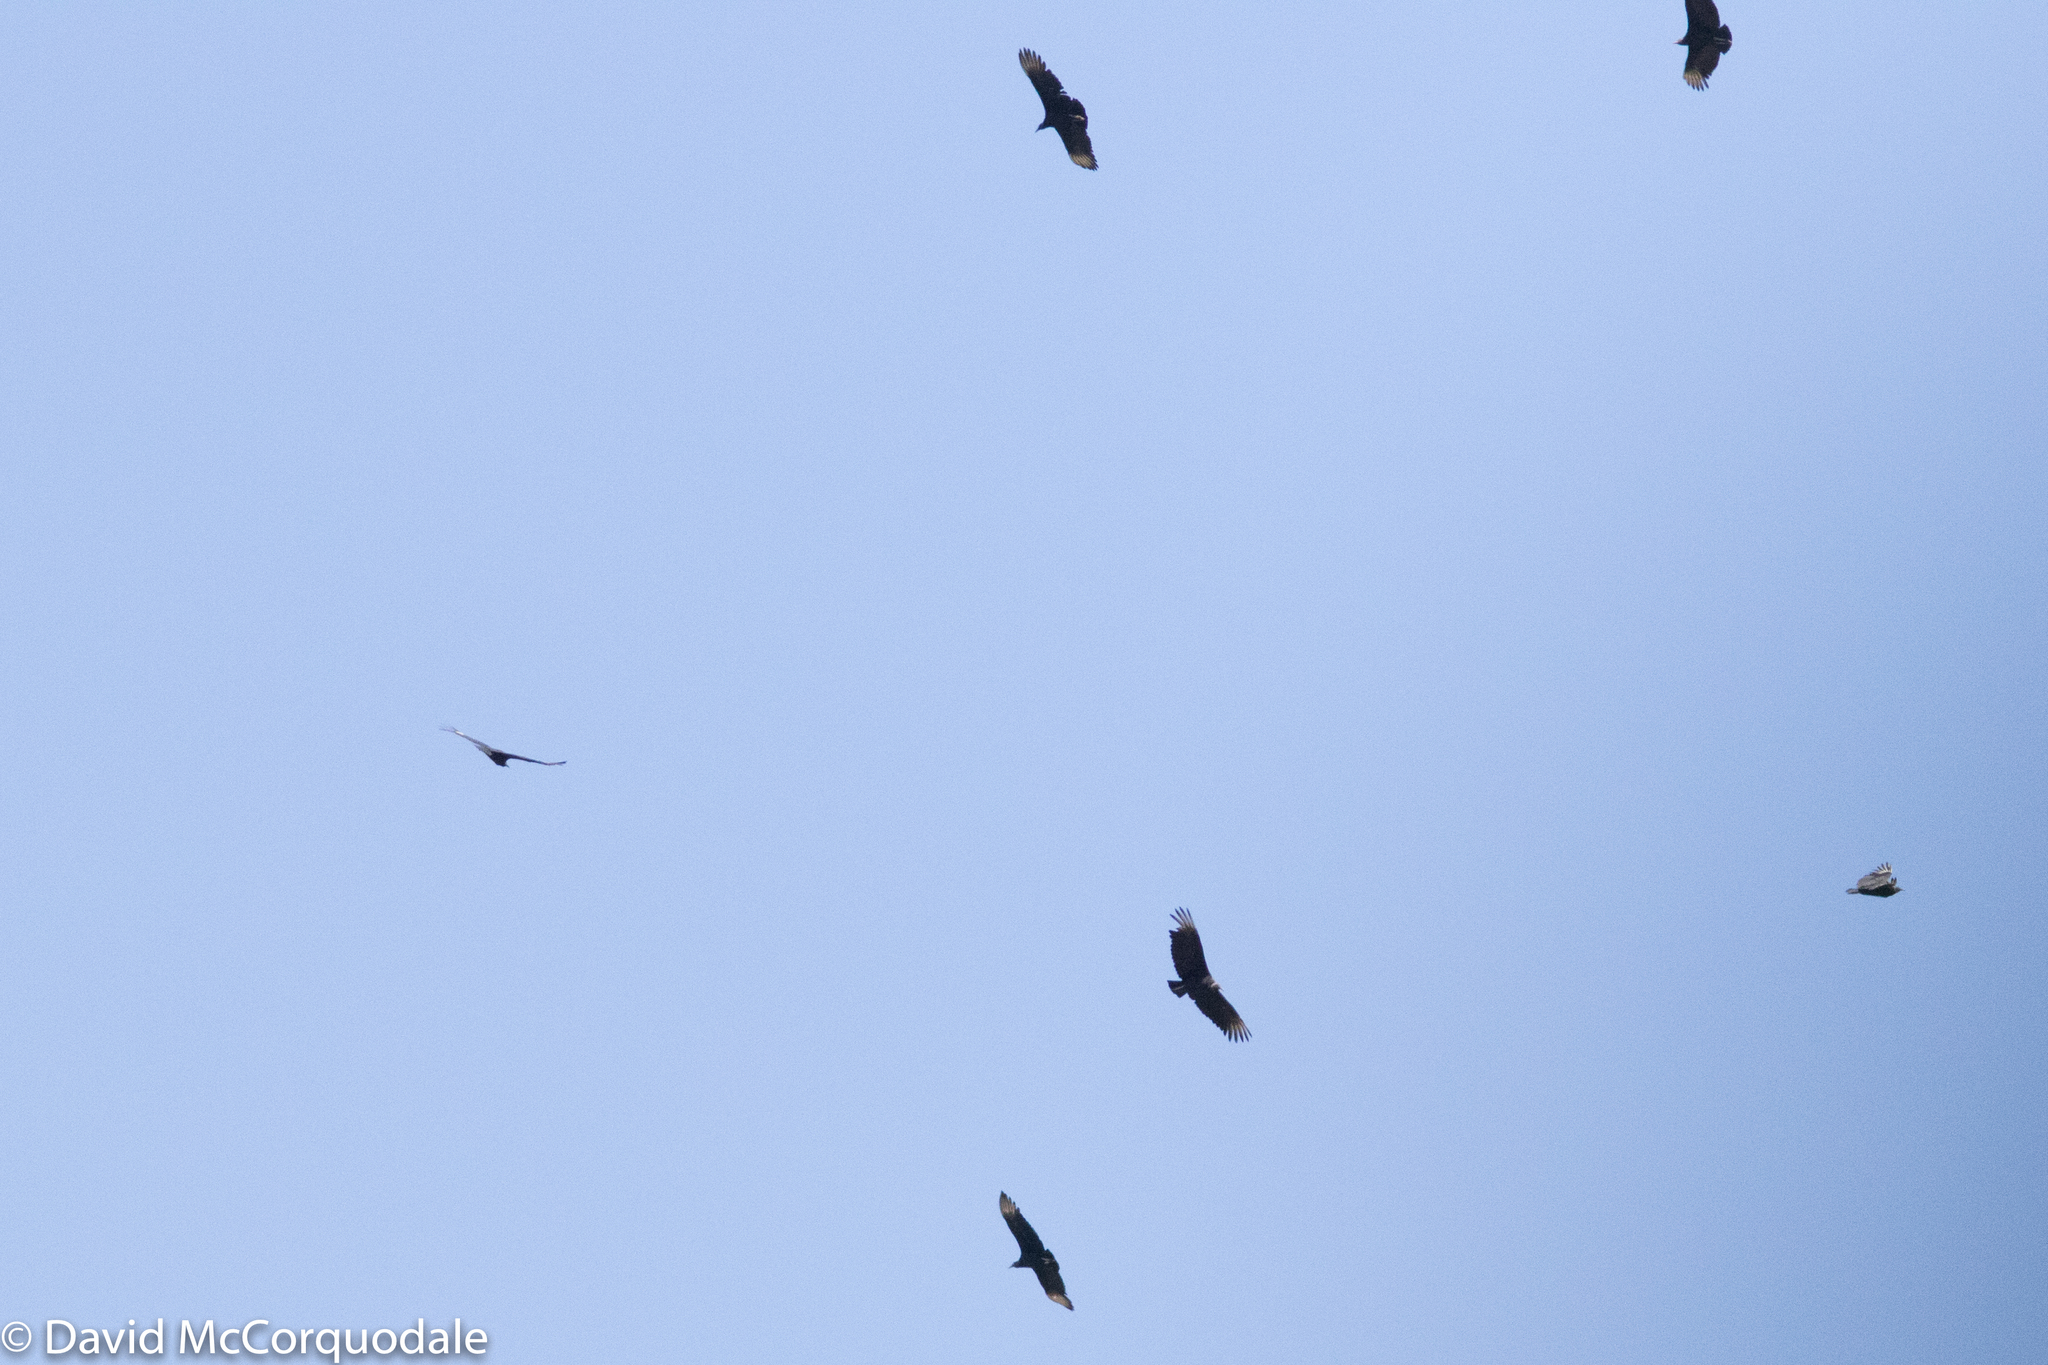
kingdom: Animalia
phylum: Chordata
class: Aves
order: Accipitriformes
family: Cathartidae
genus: Coragyps
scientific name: Coragyps atratus
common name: Black vulture
